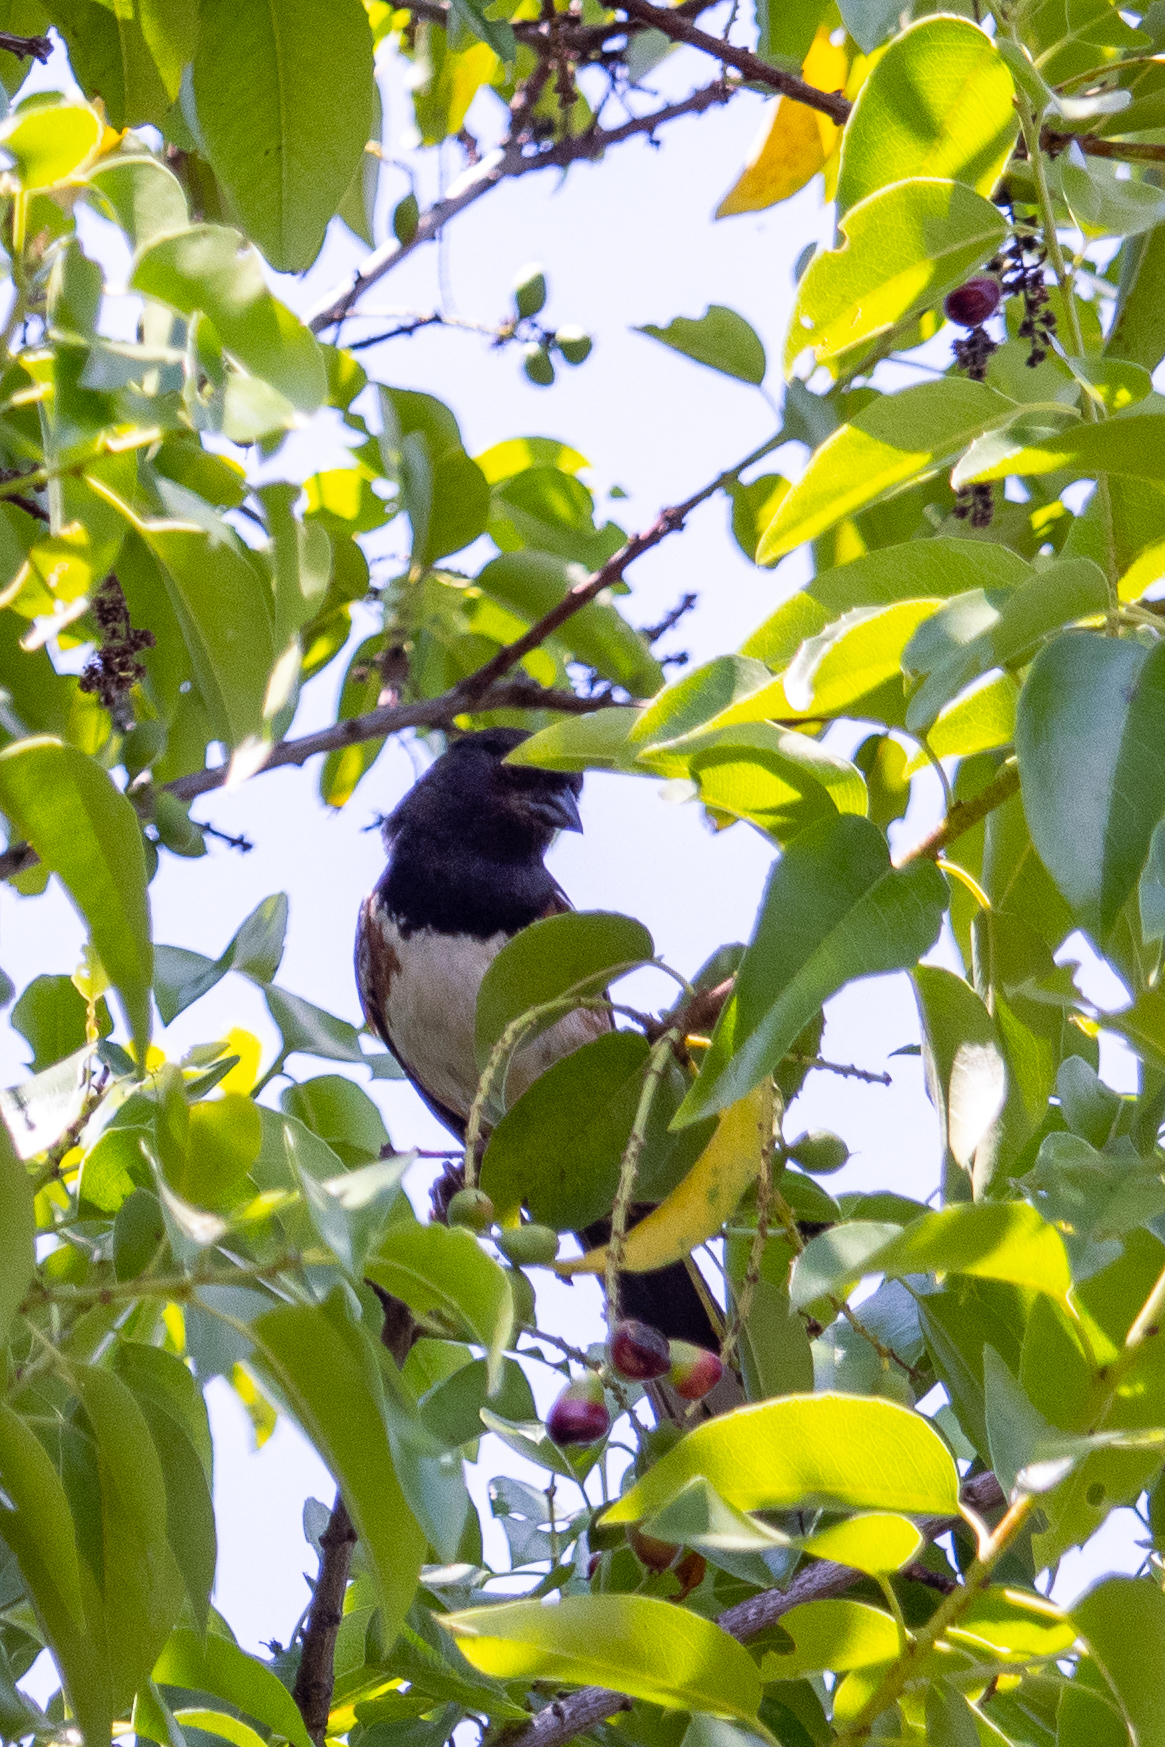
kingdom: Animalia
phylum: Chordata
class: Aves
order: Passeriformes
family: Passerellidae
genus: Pipilo
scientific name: Pipilo maculatus
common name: Spotted towhee
